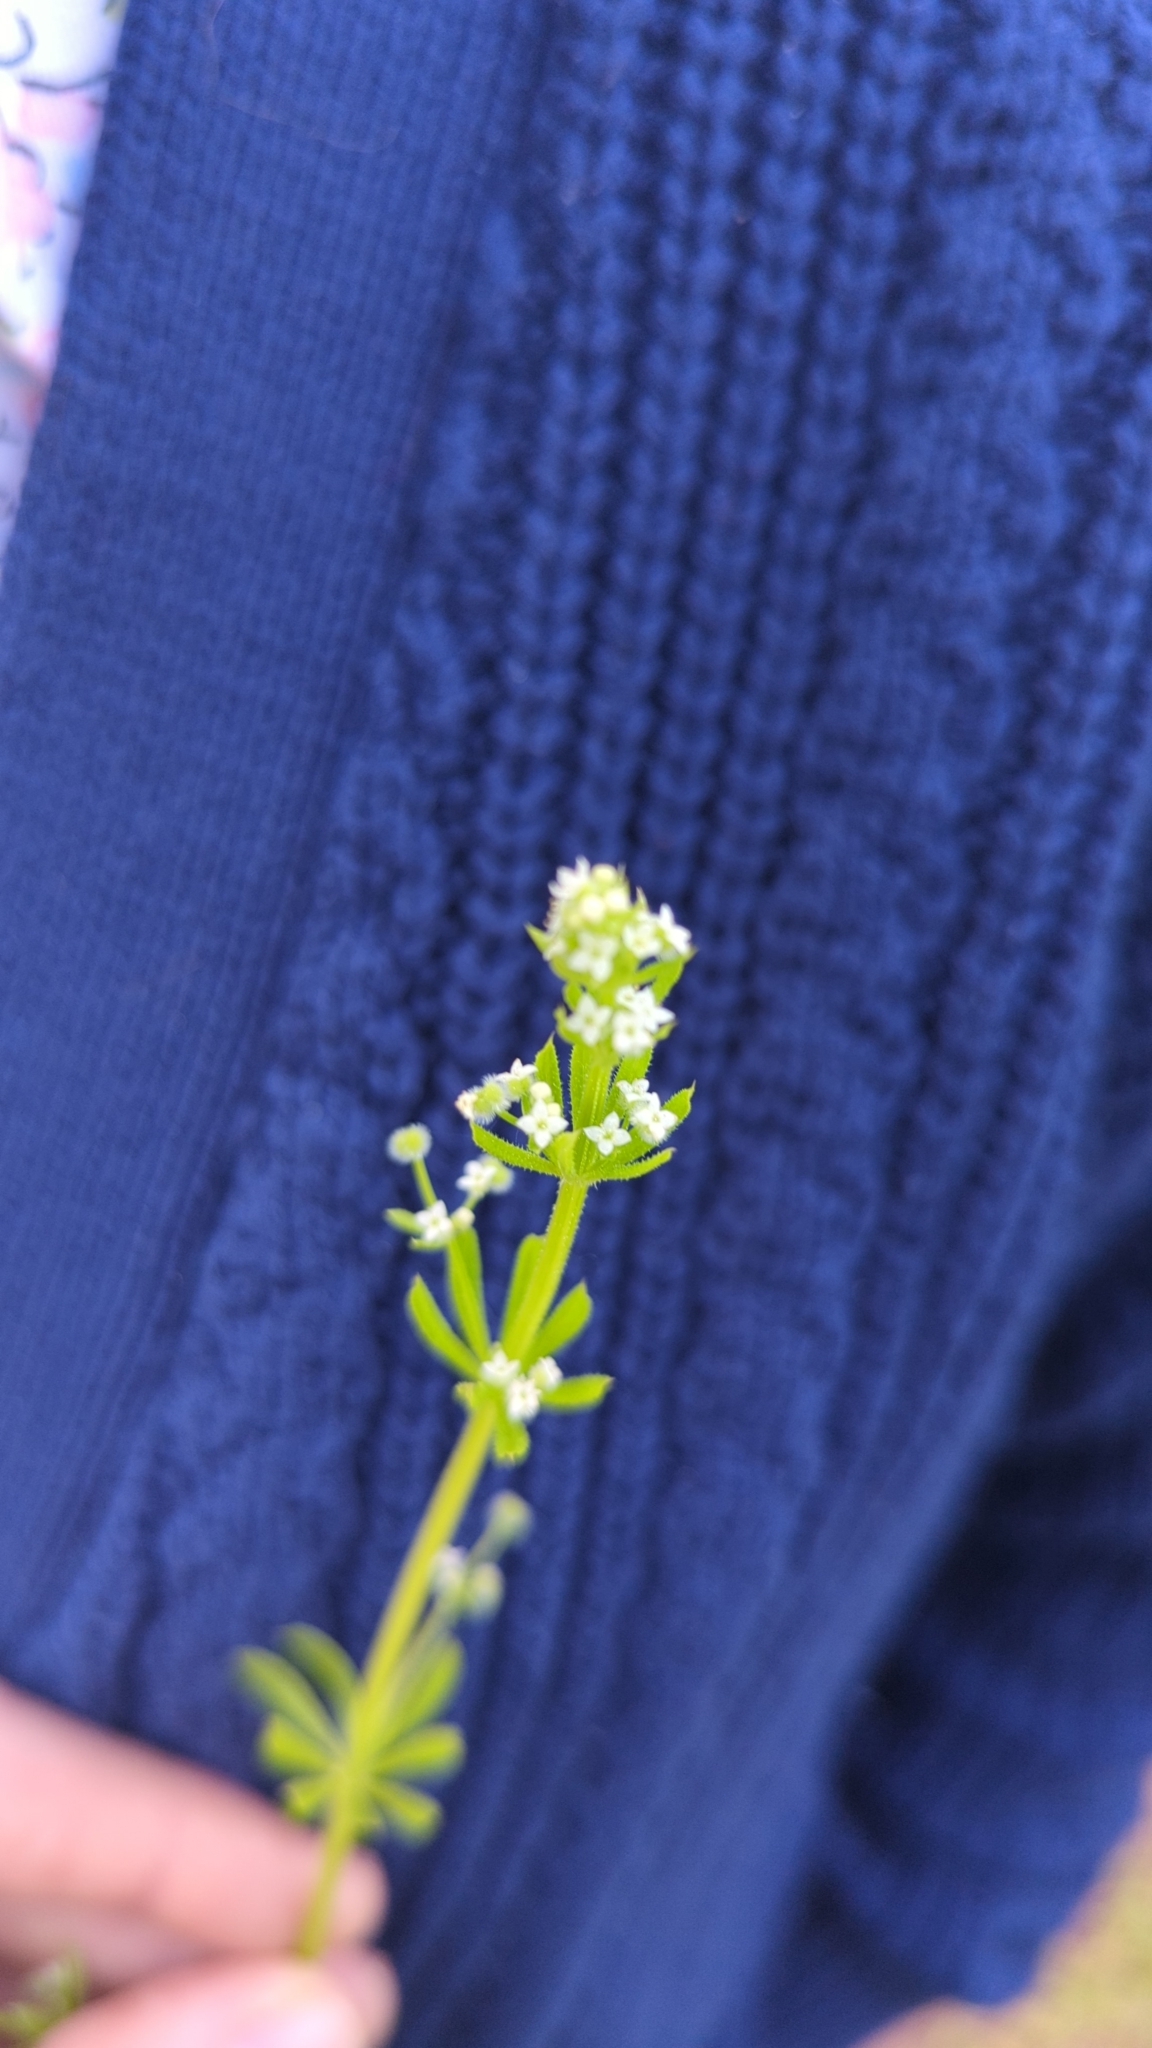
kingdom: Plantae
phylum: Tracheophyta
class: Magnoliopsida
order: Gentianales
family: Rubiaceae
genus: Galium
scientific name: Galium aparine
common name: Cleavers
